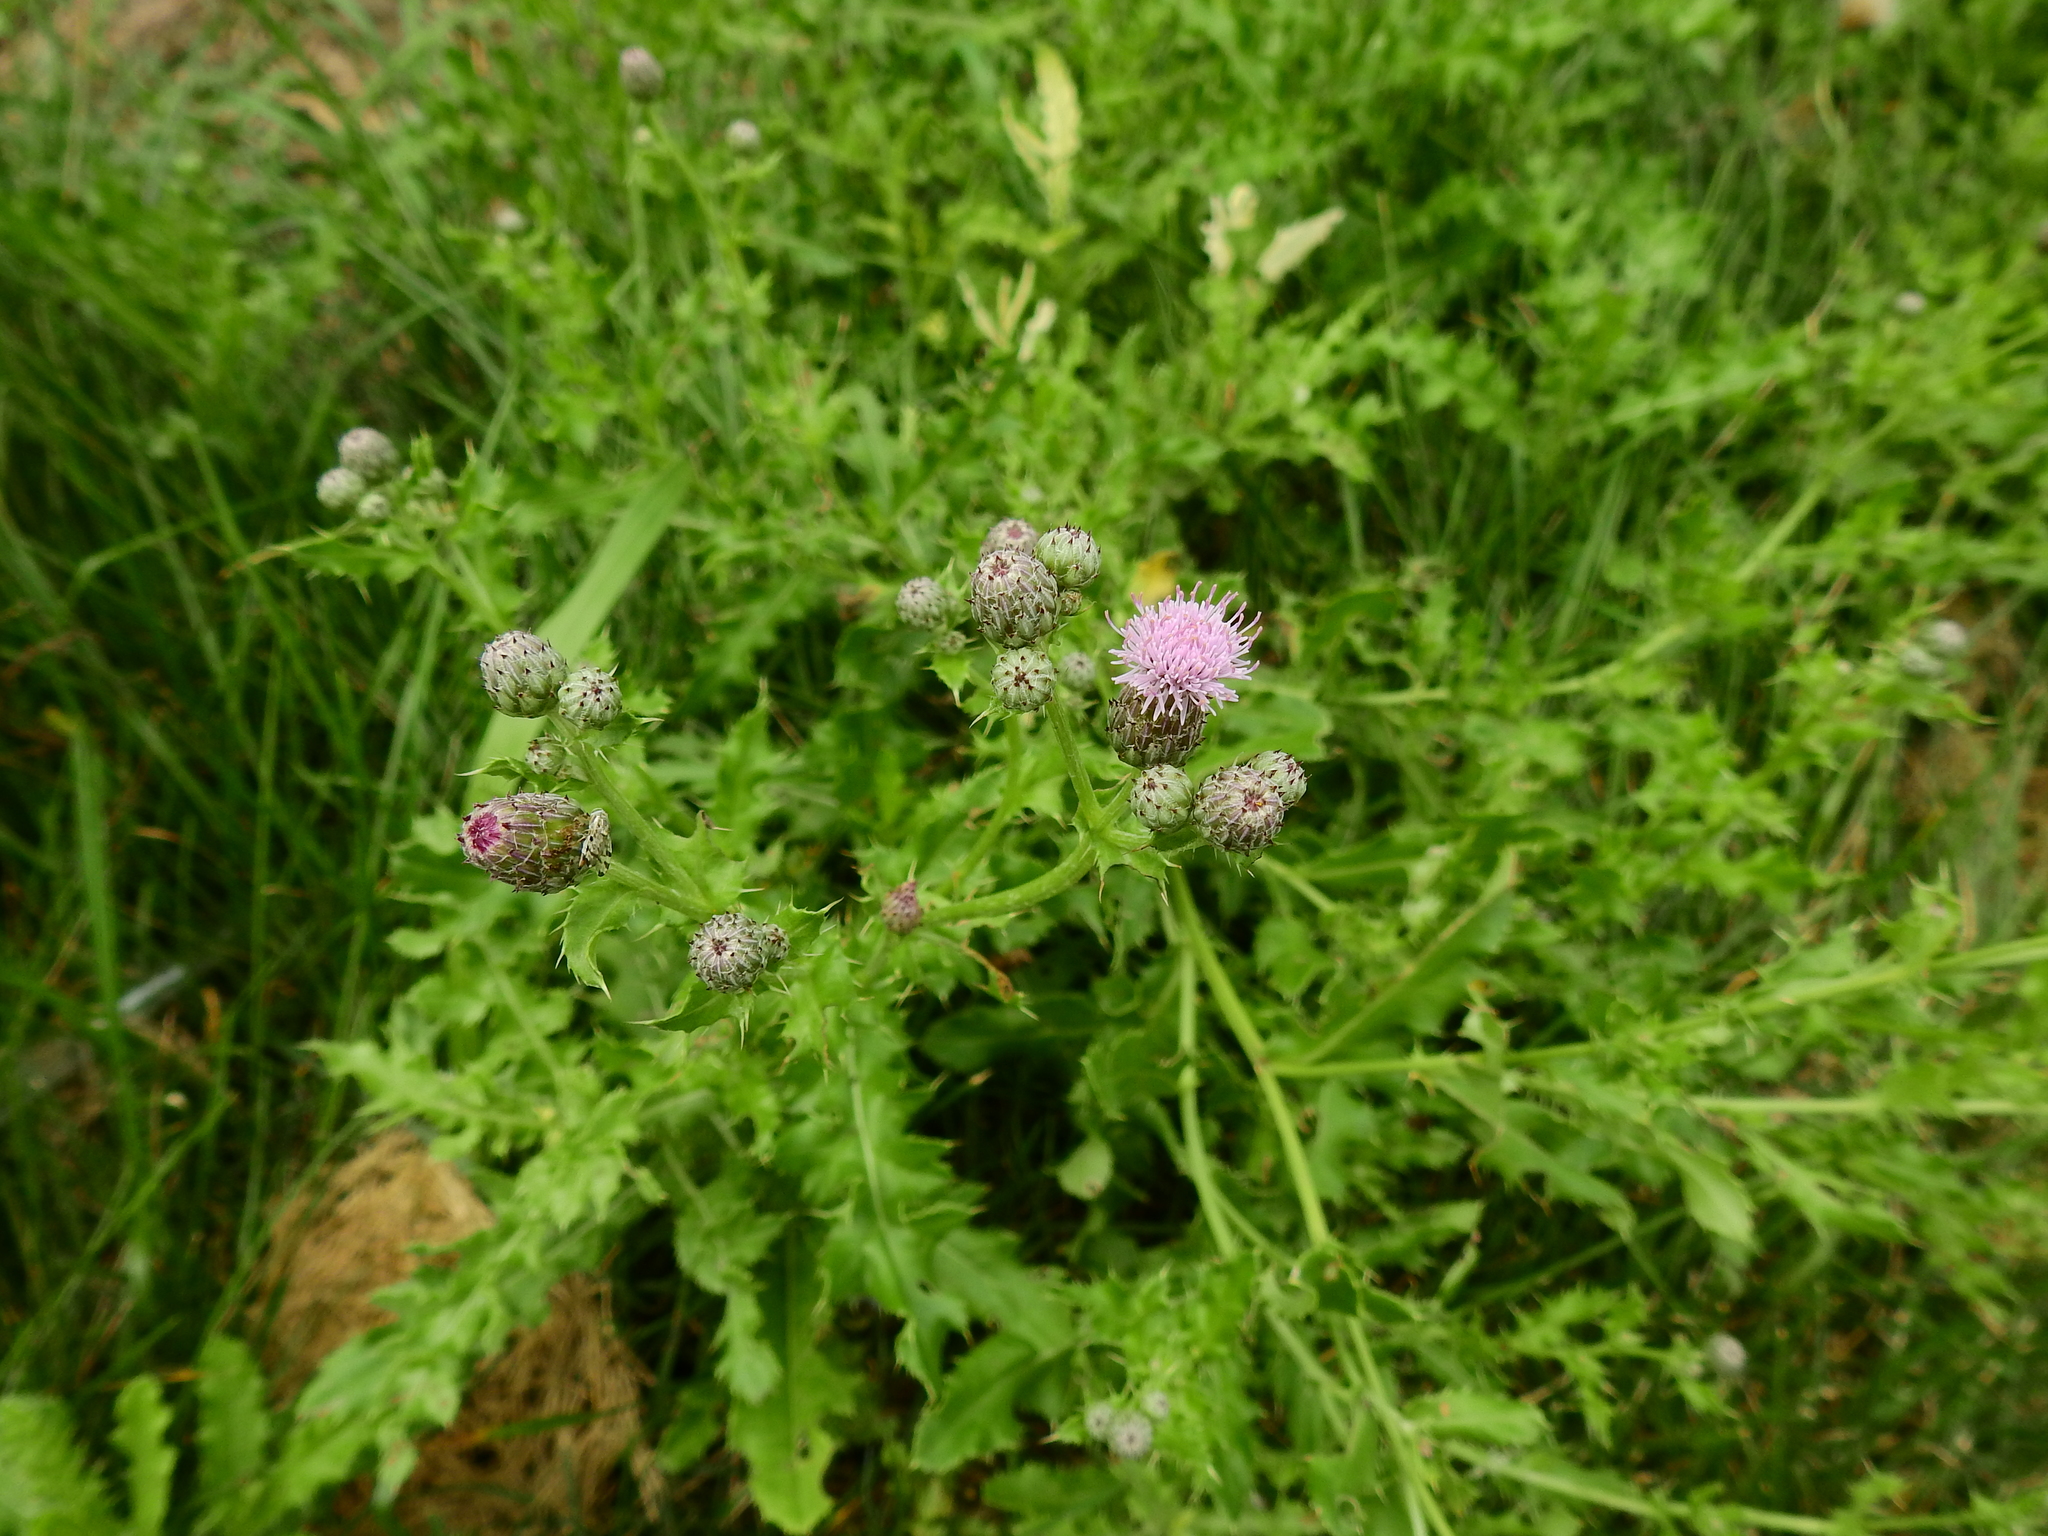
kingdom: Plantae
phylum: Tracheophyta
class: Magnoliopsida
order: Asterales
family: Asteraceae
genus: Cirsium
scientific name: Cirsium arvense
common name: Creeping thistle
